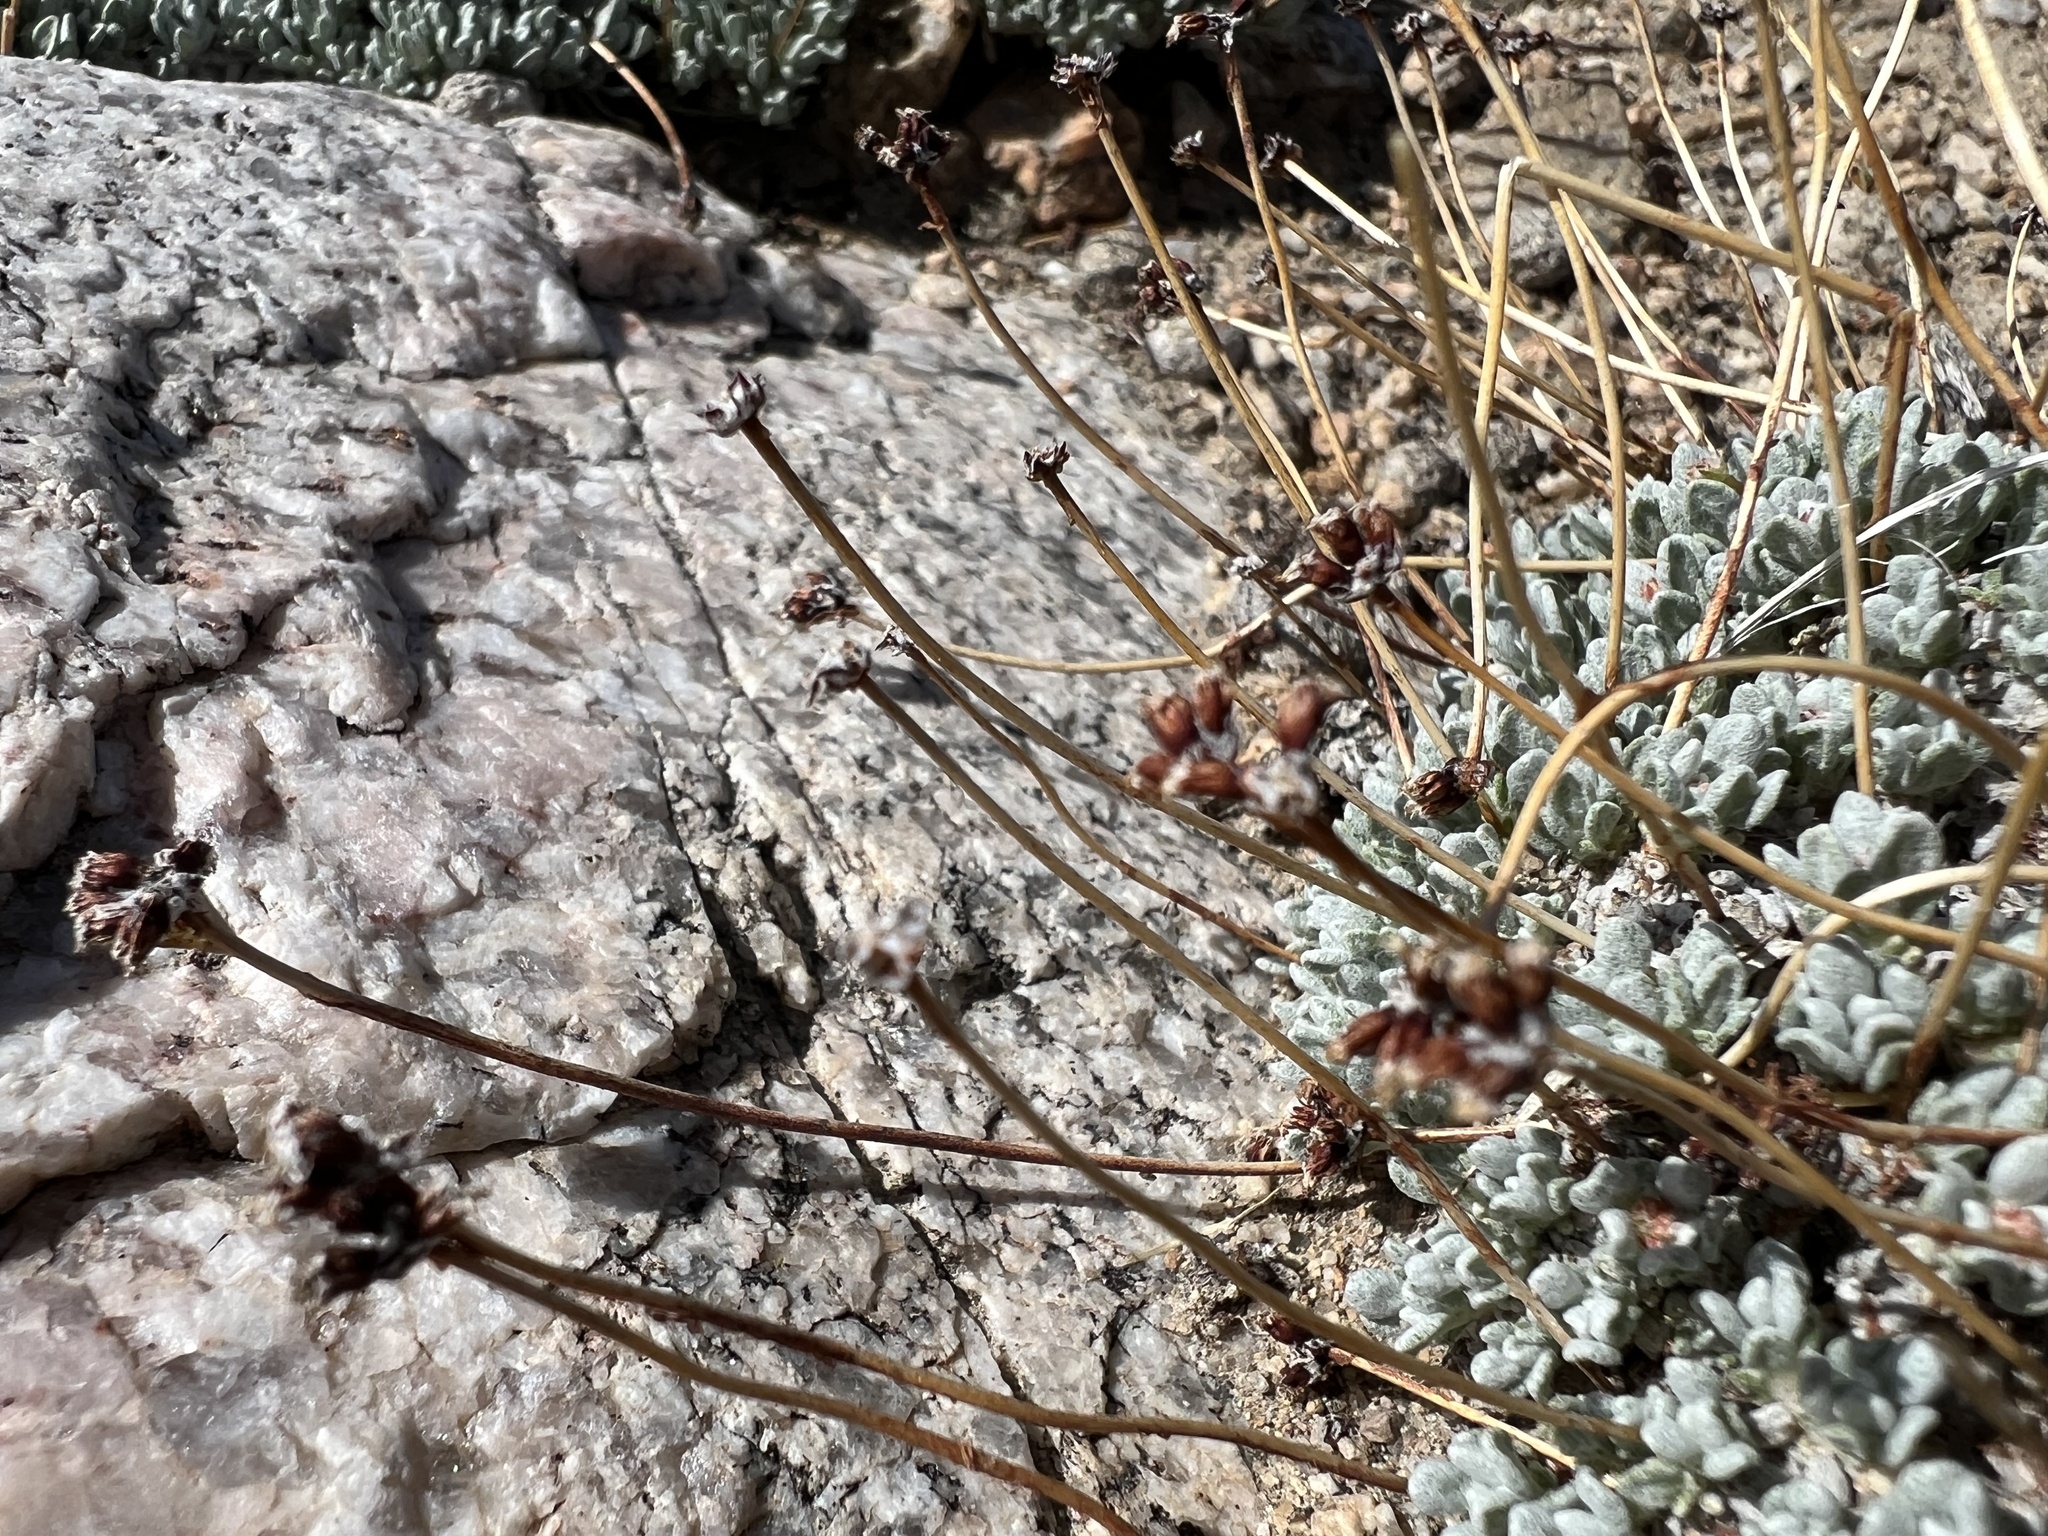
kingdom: Plantae
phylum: Tracheophyta
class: Magnoliopsida
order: Caryophyllales
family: Polygonaceae
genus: Eriogonum
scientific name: Eriogonum kennedyi
